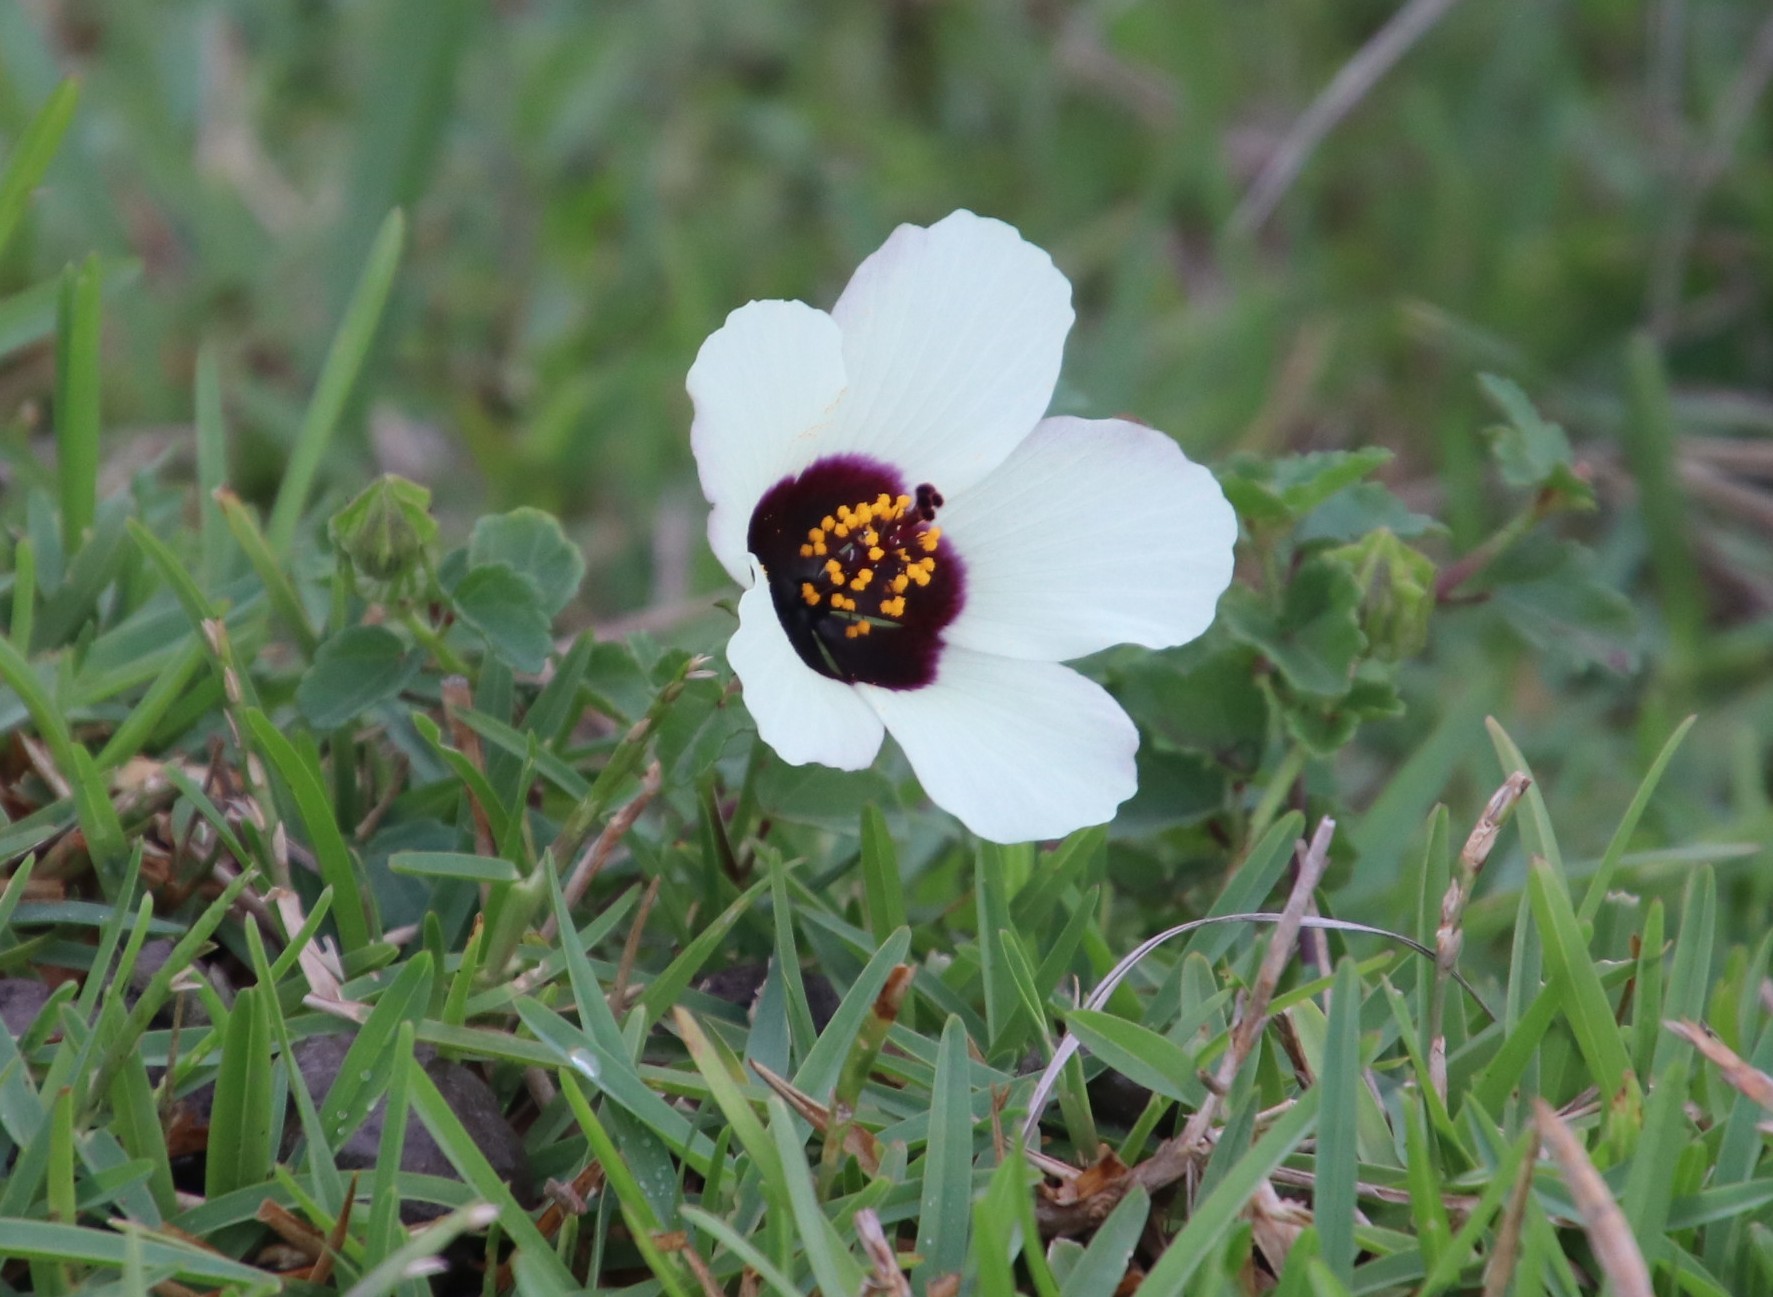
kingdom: Plantae
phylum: Tracheophyta
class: Magnoliopsida
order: Malvales
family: Malvaceae
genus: Hibiscus
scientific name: Hibiscus trionum
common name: Bladder ketmia
